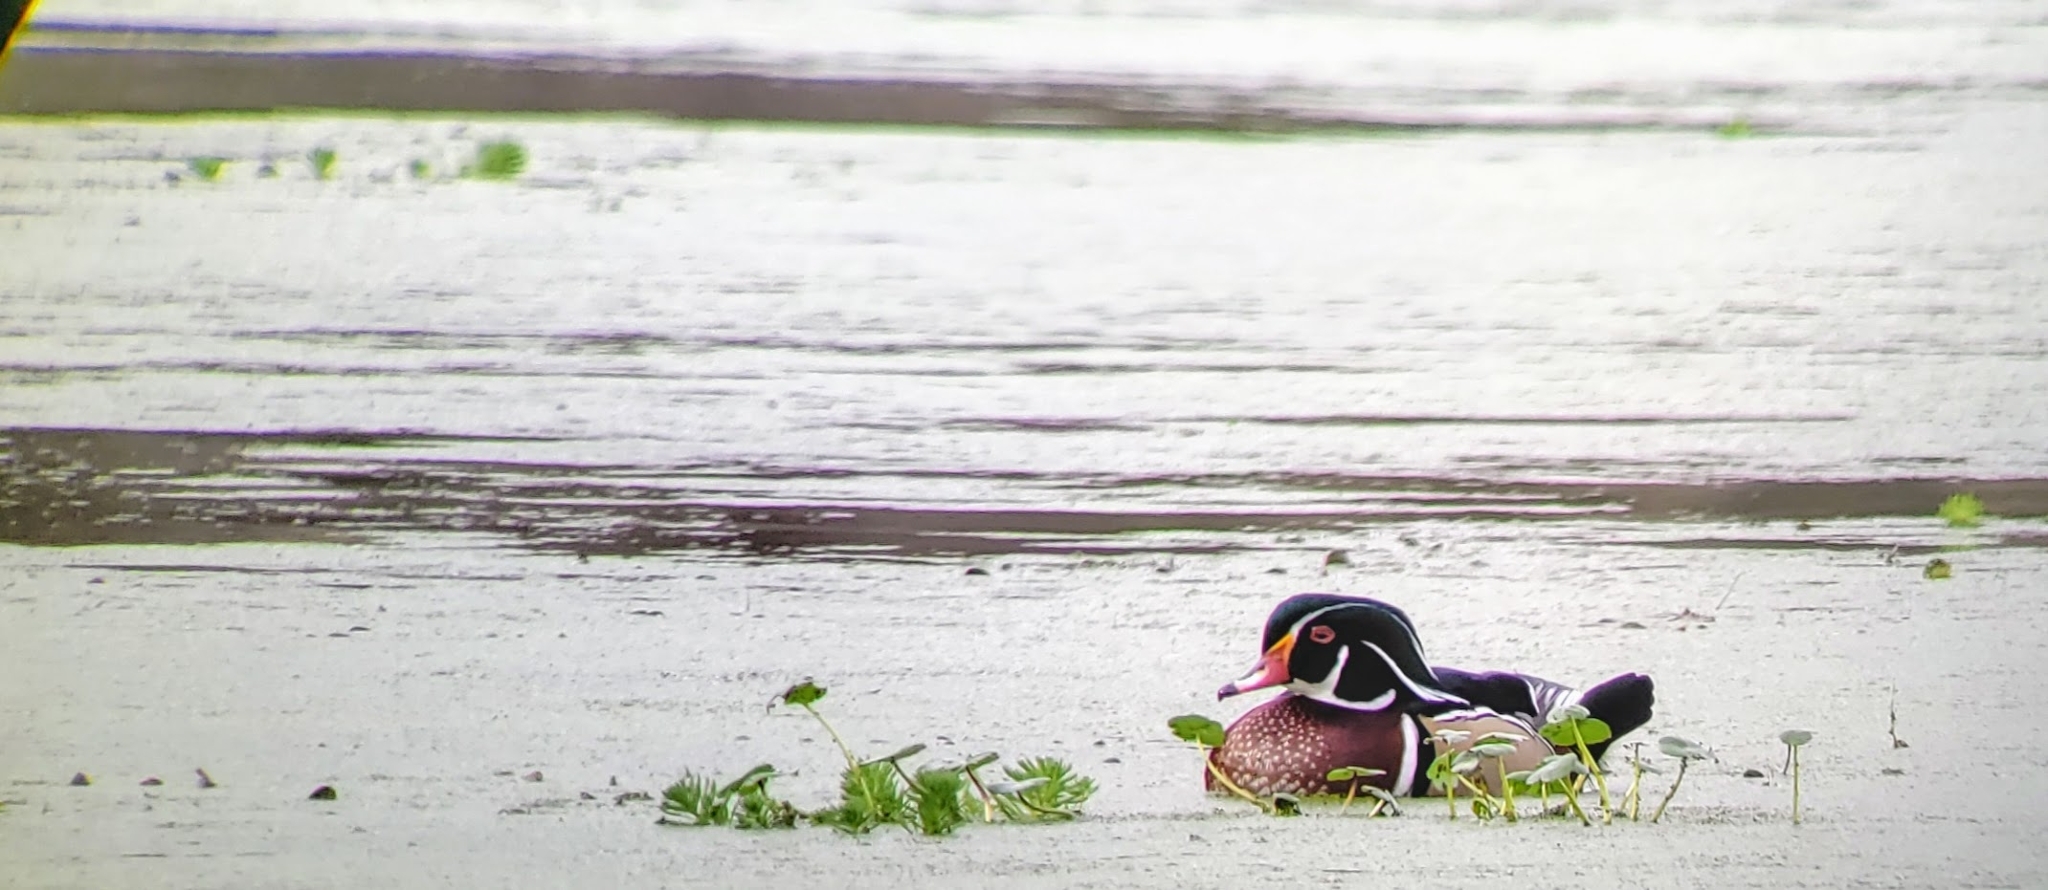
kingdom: Animalia
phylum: Chordata
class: Aves
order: Anseriformes
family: Anatidae
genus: Aix
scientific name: Aix sponsa
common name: Wood duck
